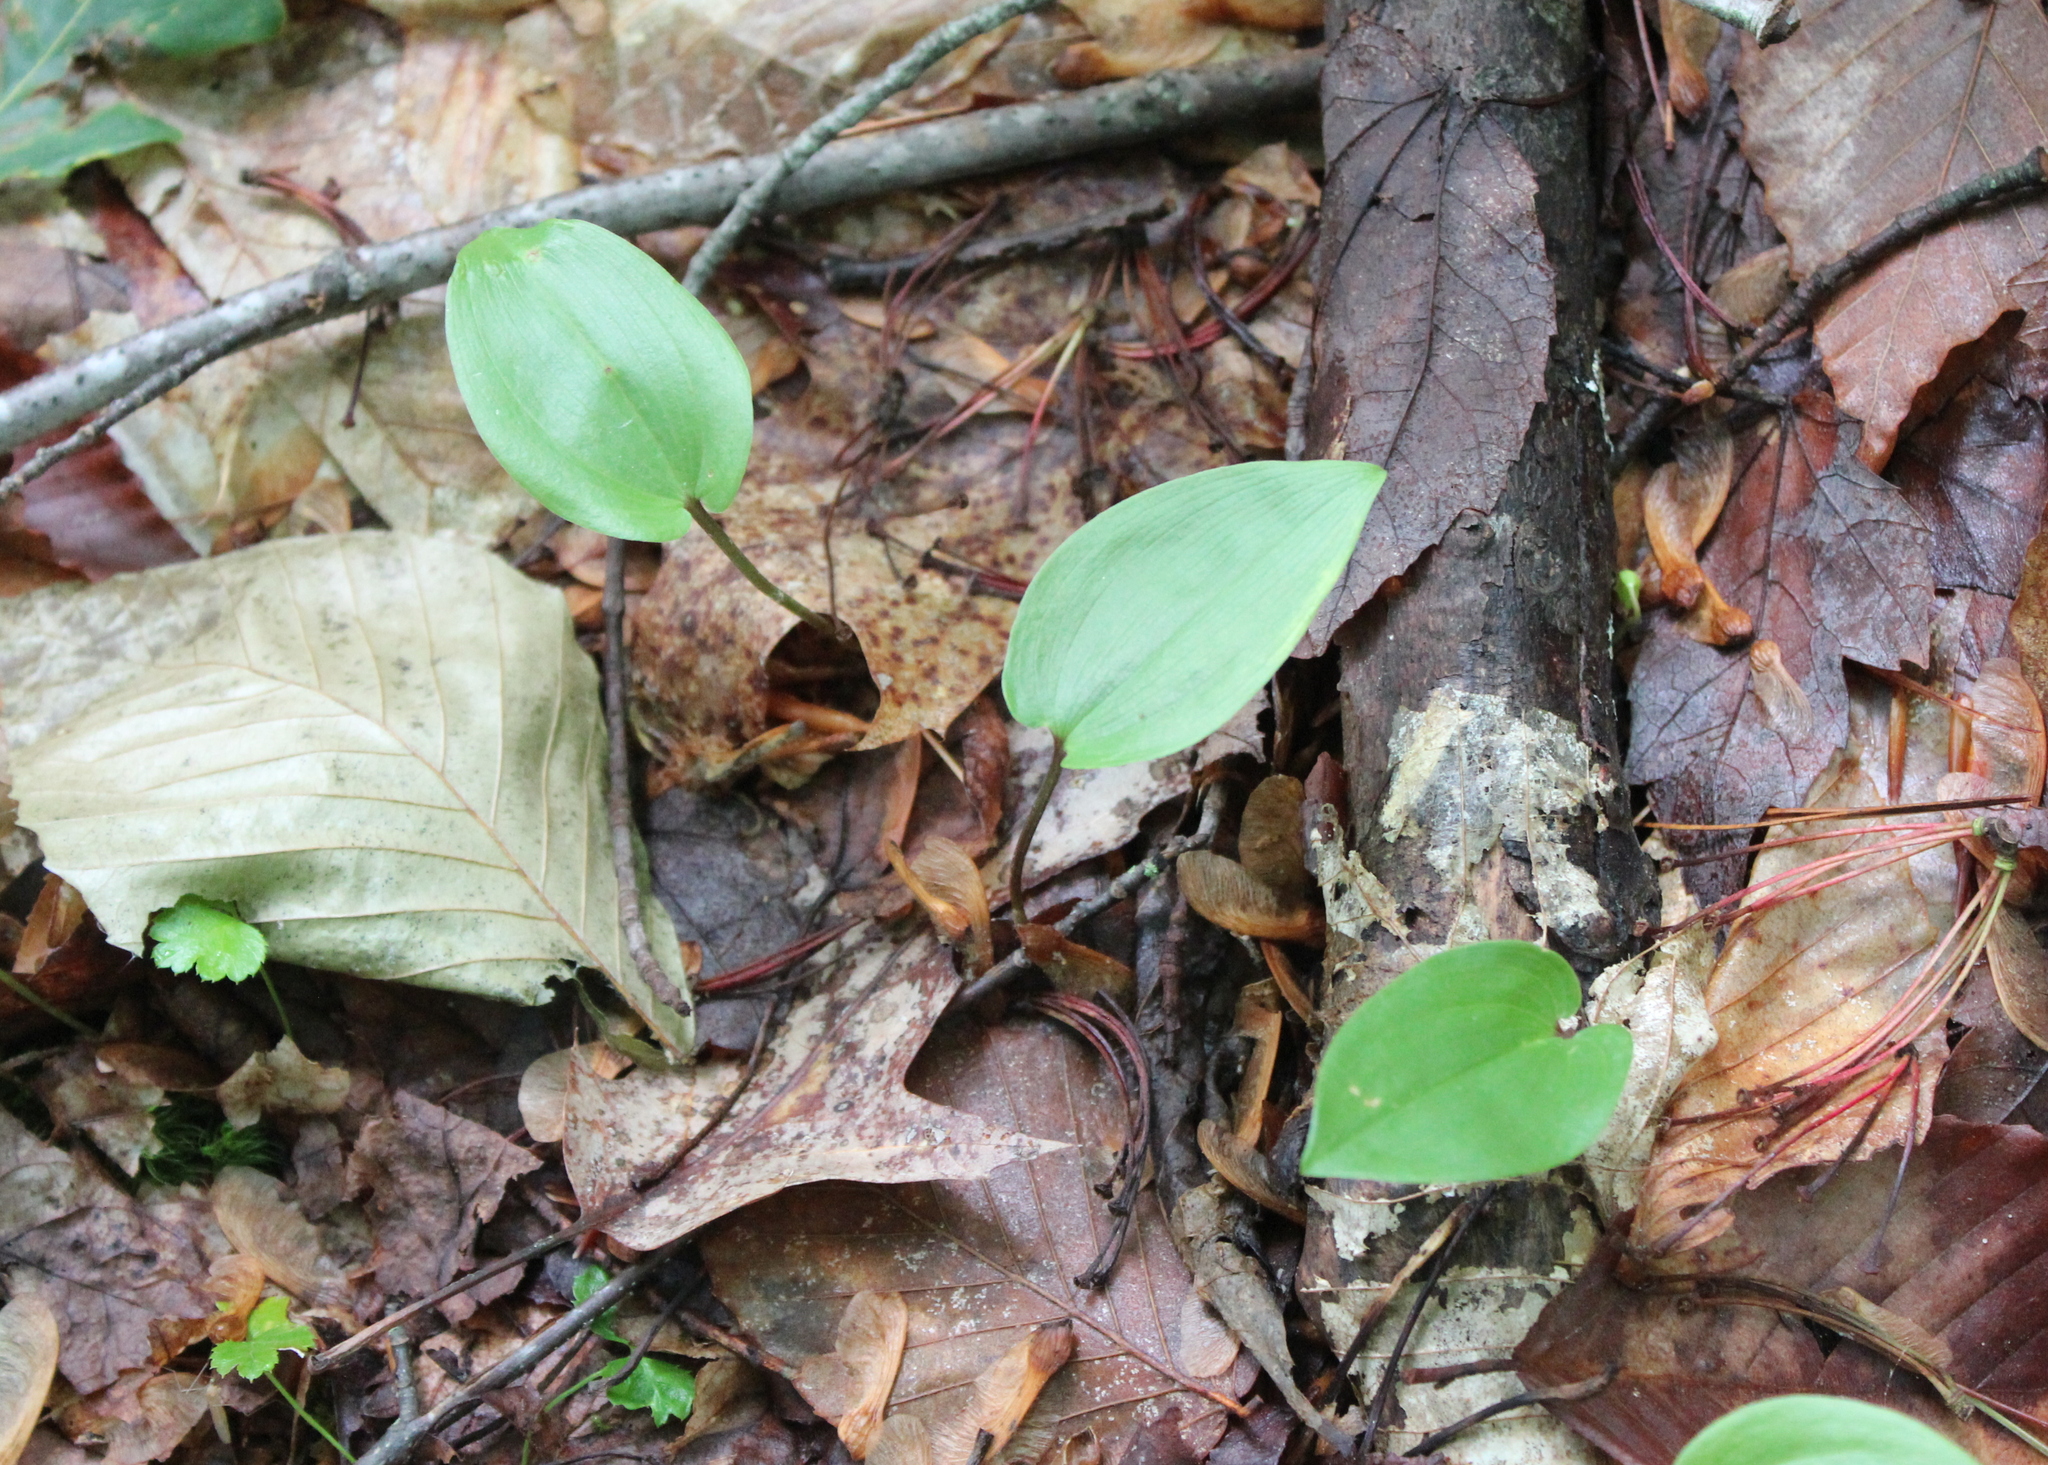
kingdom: Plantae
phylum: Tracheophyta
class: Liliopsida
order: Asparagales
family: Asparagaceae
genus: Maianthemum
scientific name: Maianthemum canadense
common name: False lily-of-the-valley
